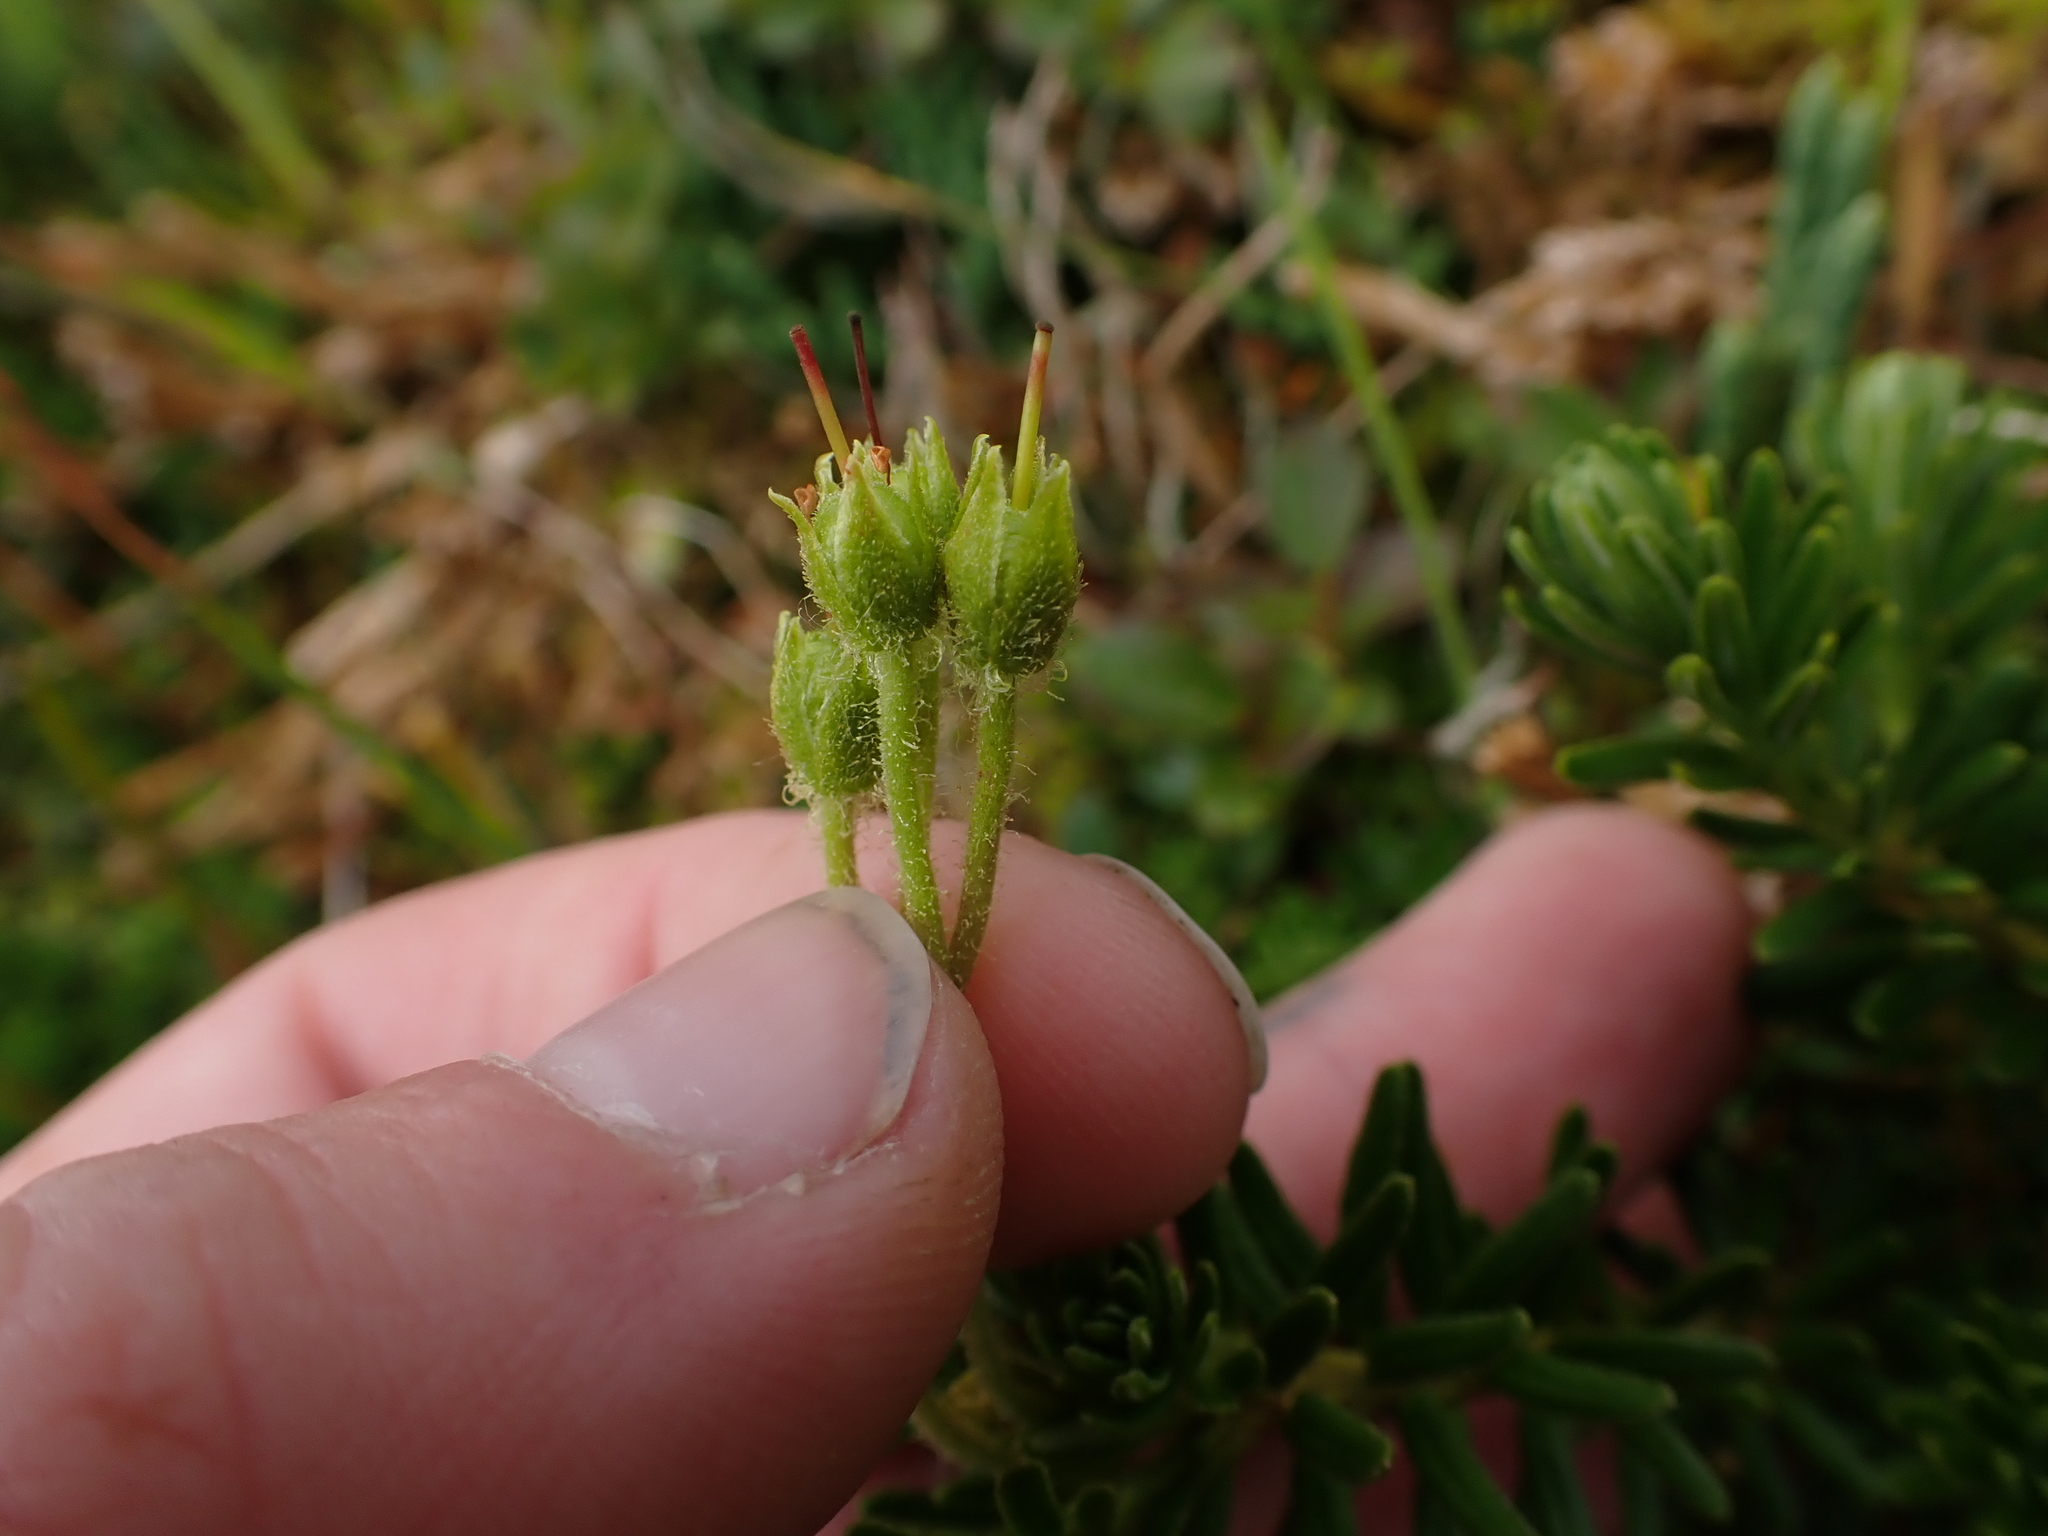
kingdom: Plantae
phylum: Tracheophyta
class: Magnoliopsida
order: Ericales
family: Ericaceae
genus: Phyllodoce
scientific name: Phyllodoce glanduliflora
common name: Cream mountain heather
